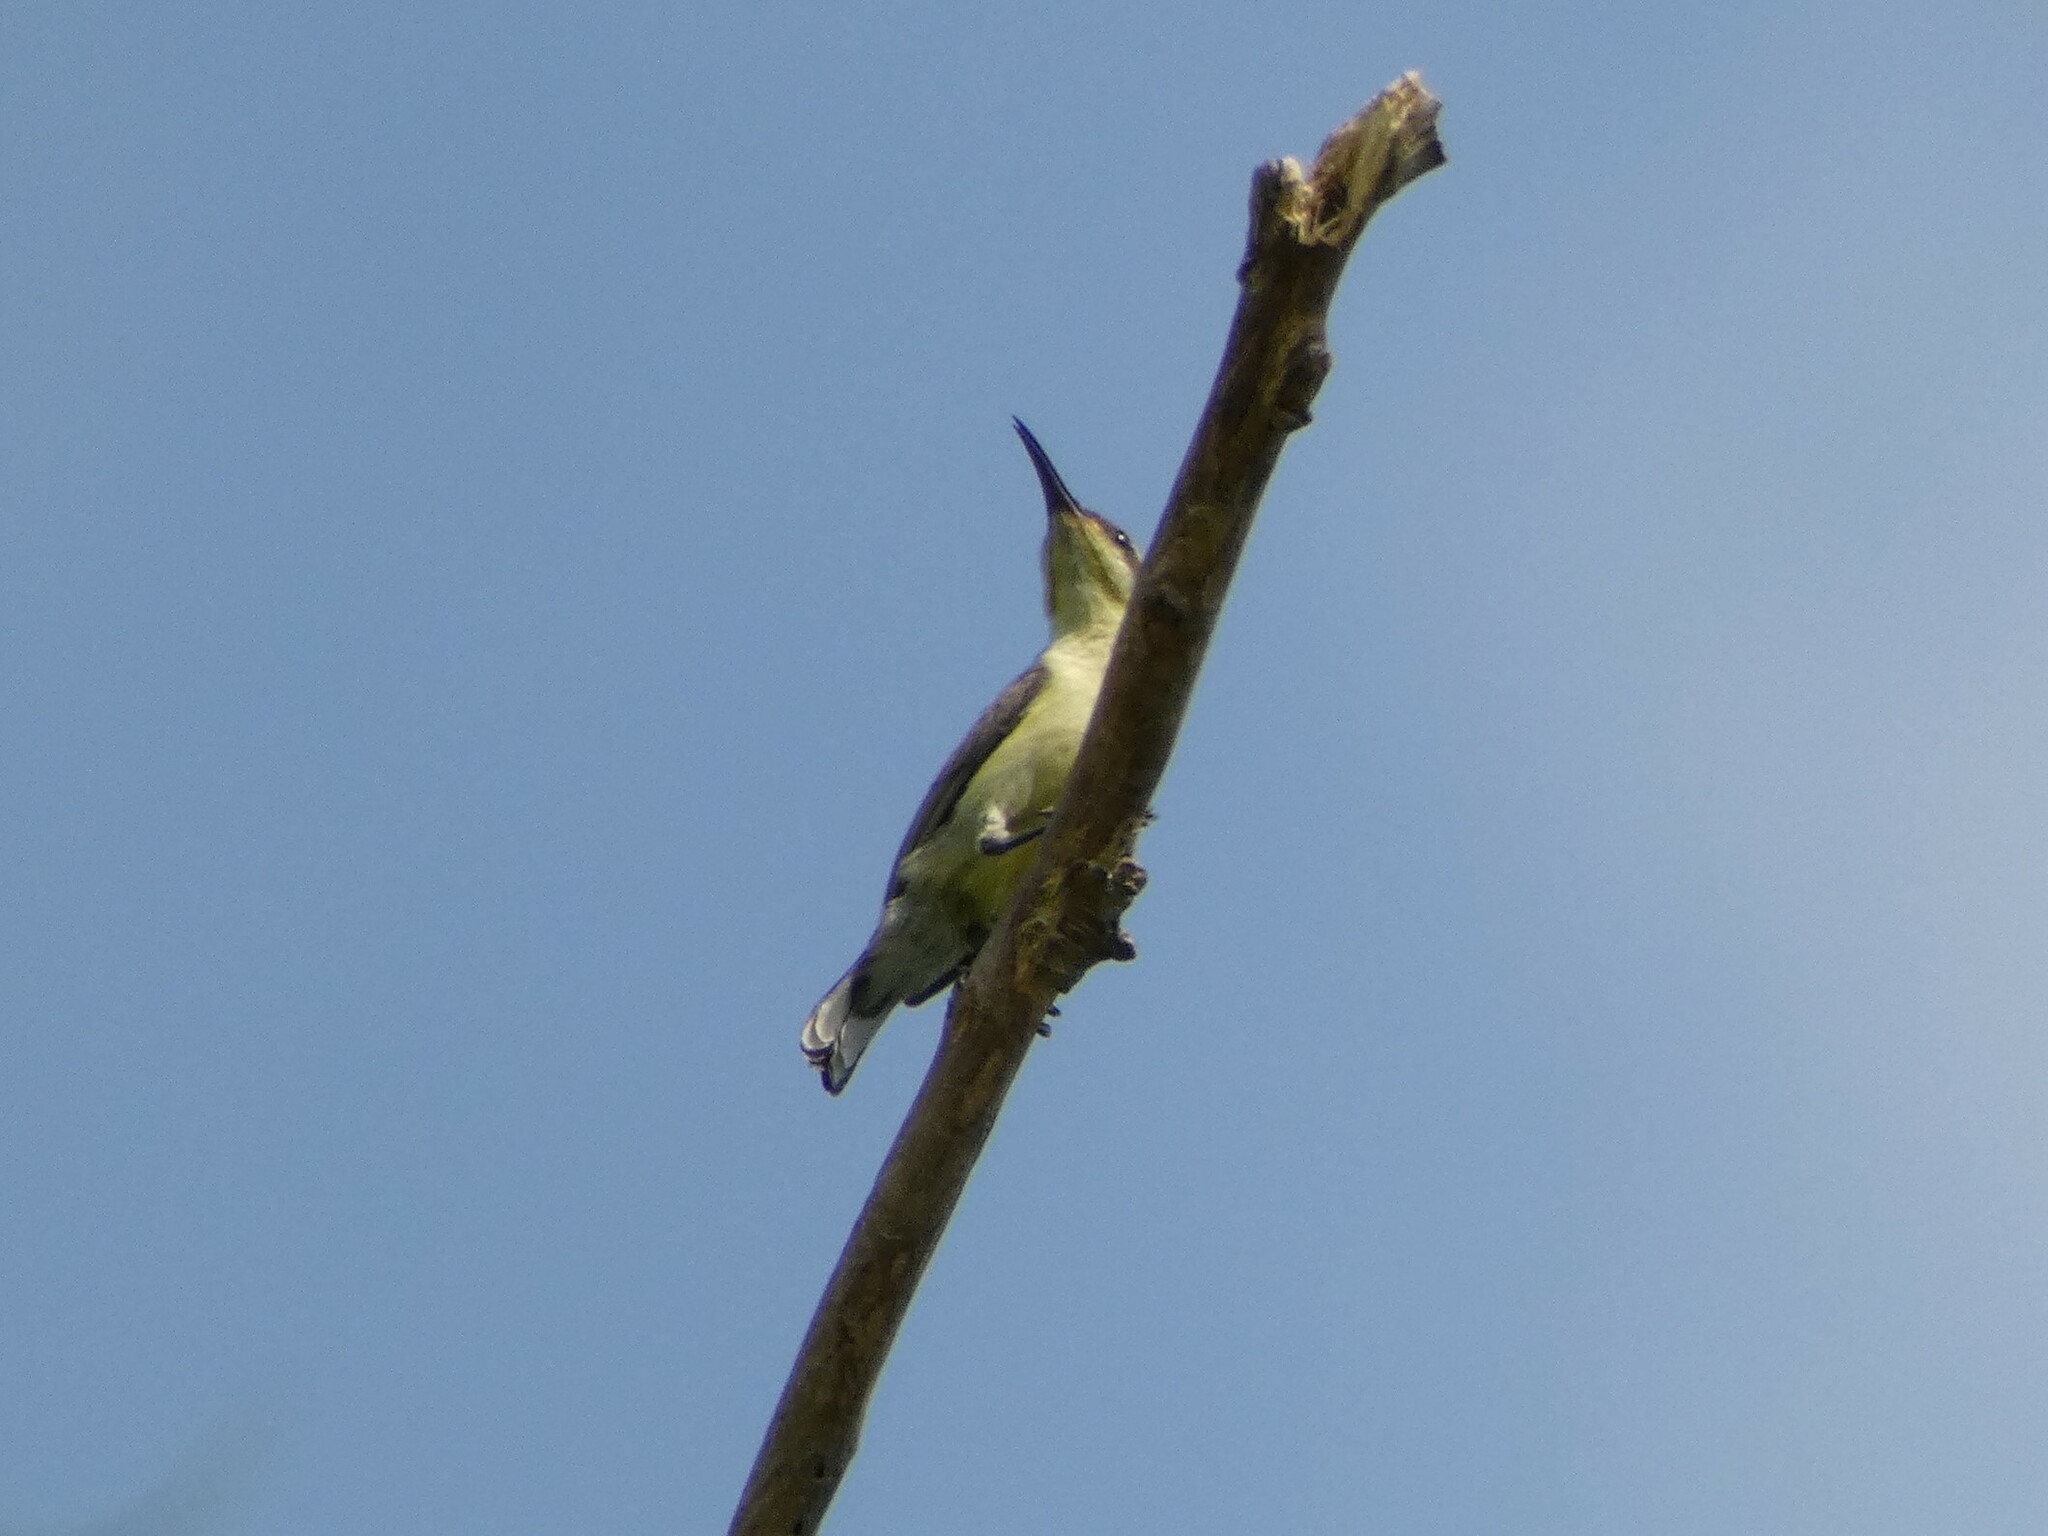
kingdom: Animalia
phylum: Chordata
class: Aves
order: Passeriformes
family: Nectariniidae
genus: Cinnyris
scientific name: Cinnyris
